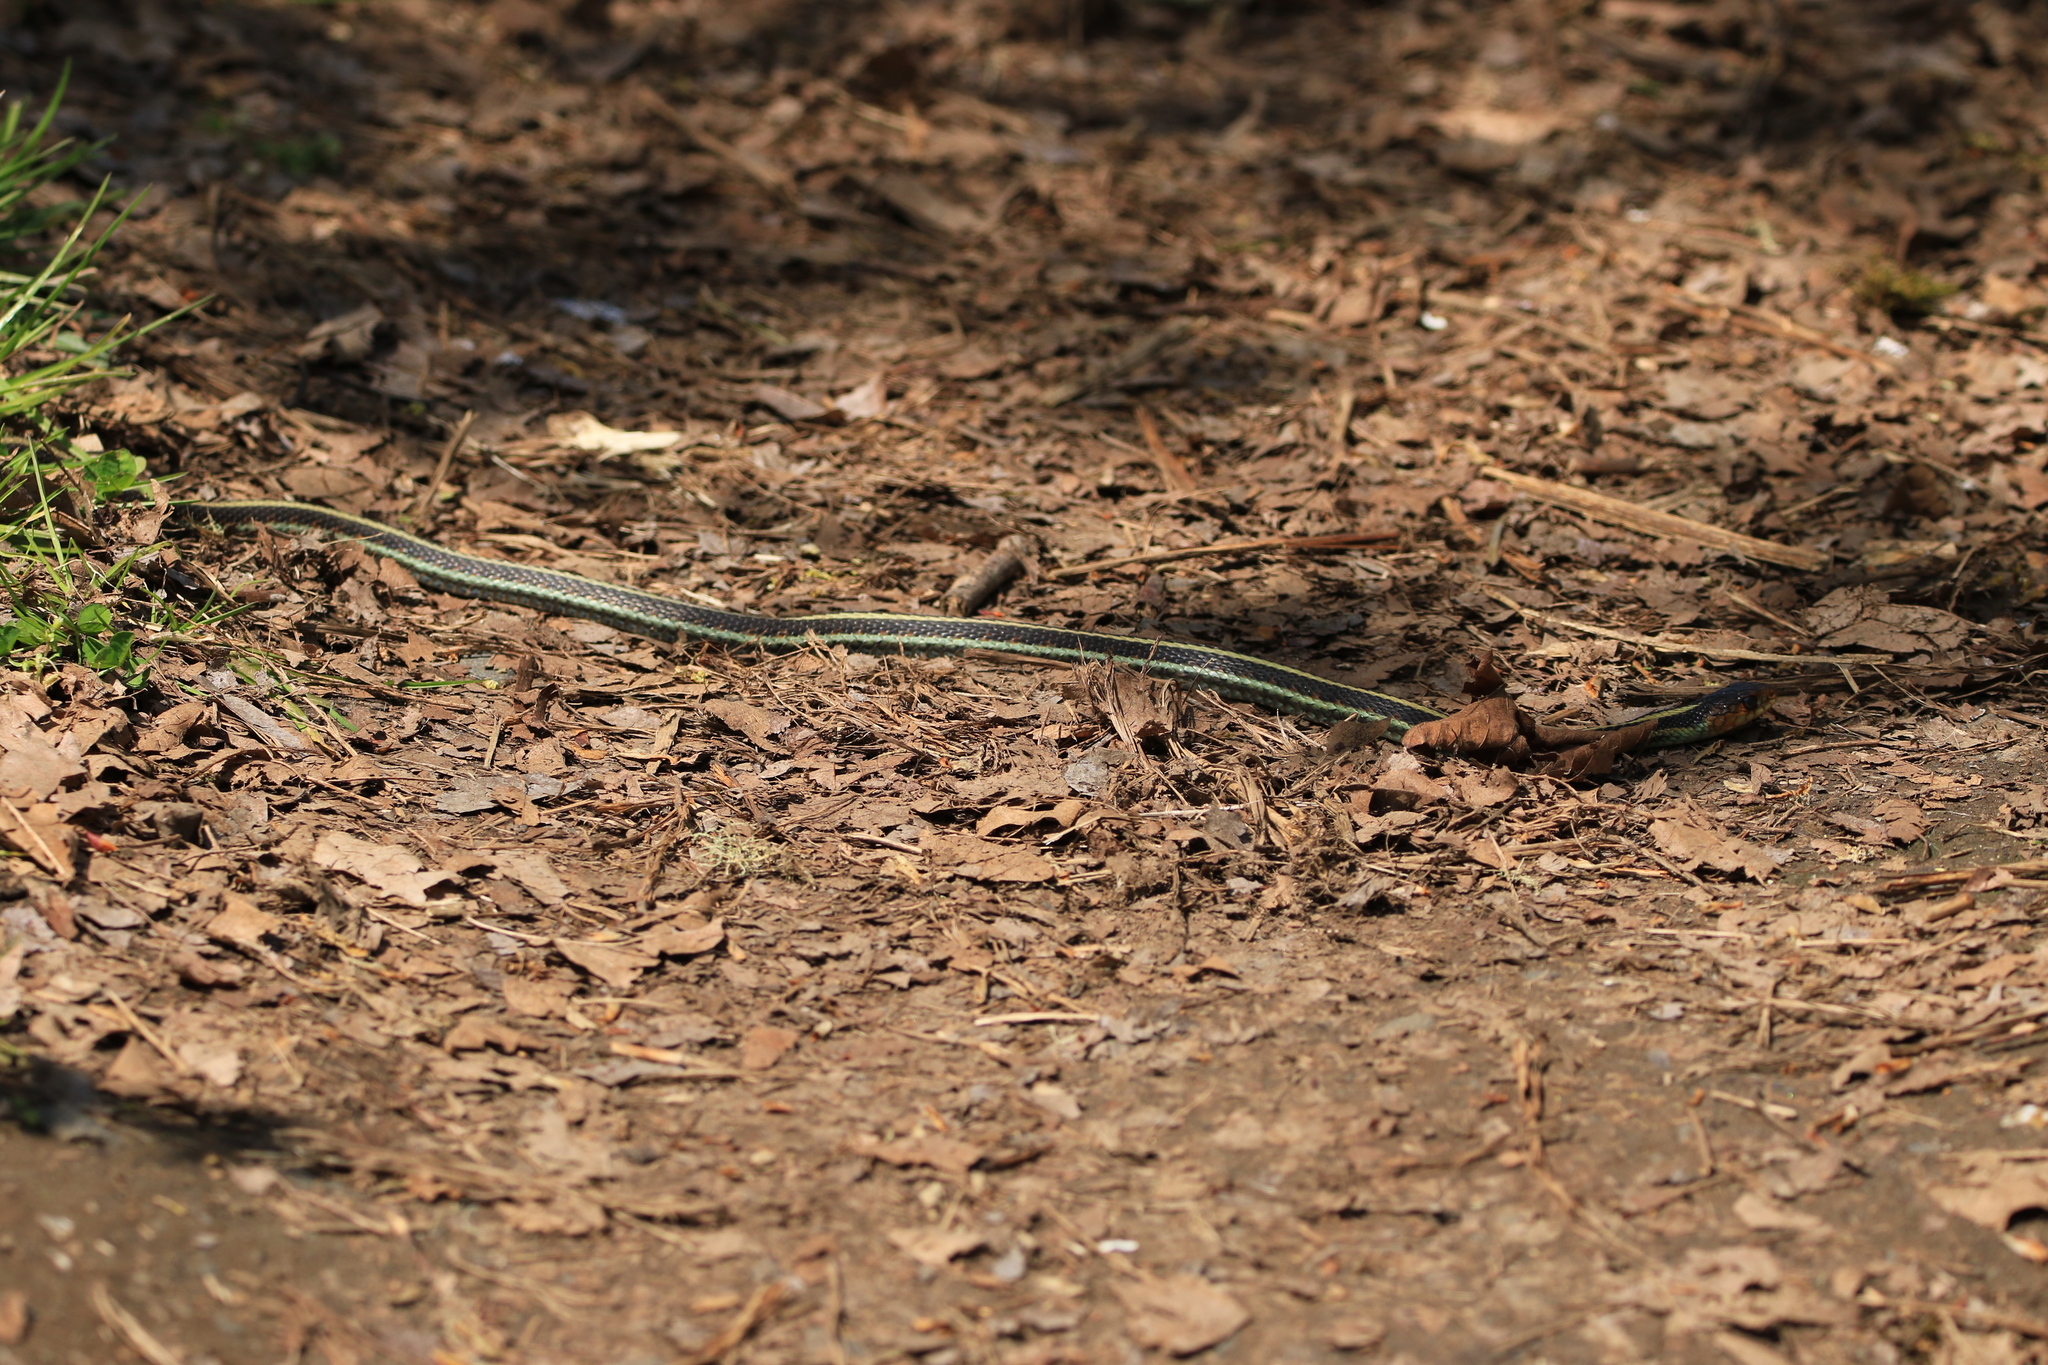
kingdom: Animalia
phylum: Chordata
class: Squamata
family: Colubridae
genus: Thamnophis
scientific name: Thamnophis sirtalis
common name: Common garter snake
